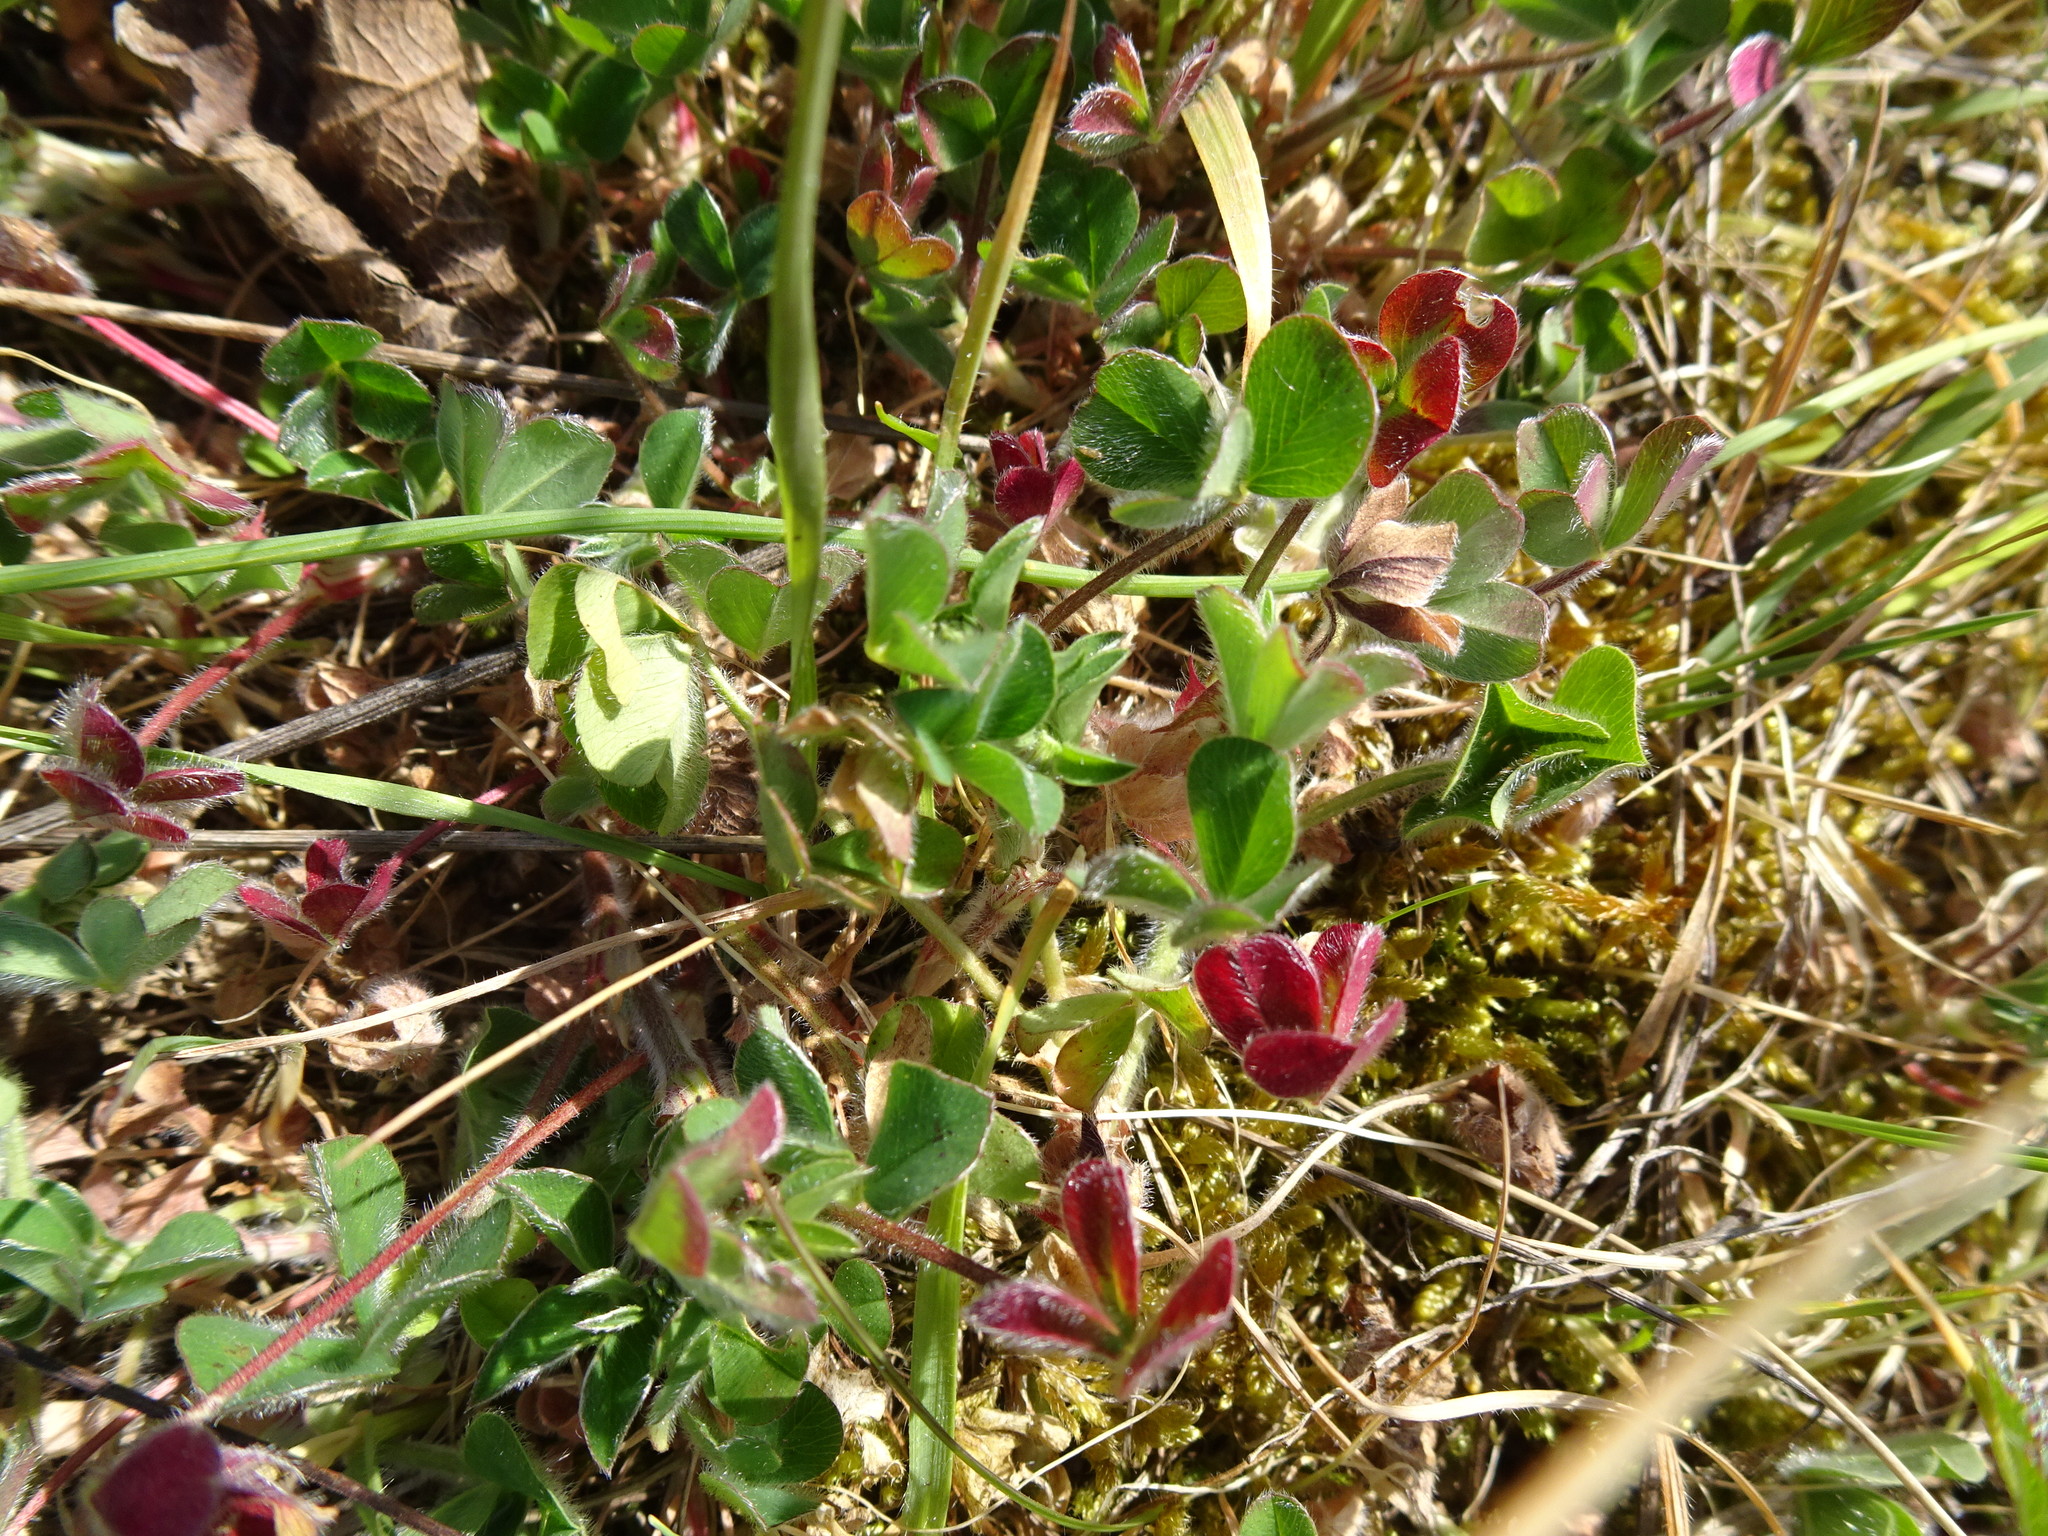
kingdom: Plantae
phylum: Tracheophyta
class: Magnoliopsida
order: Fabales
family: Fabaceae
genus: Trifolium
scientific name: Trifolium striatum
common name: Knotted clover
